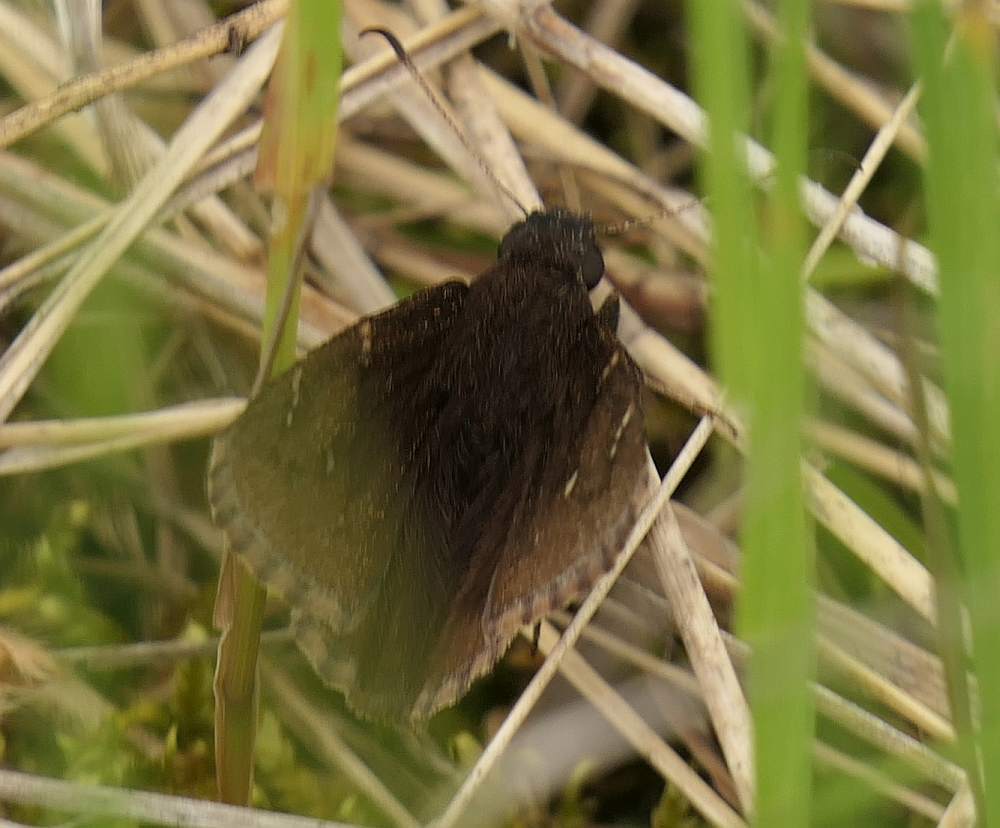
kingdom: Animalia
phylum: Arthropoda
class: Insecta
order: Lepidoptera
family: Hesperiidae
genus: Thorybes
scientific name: Thorybes pylades
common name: Northern cloudywing
